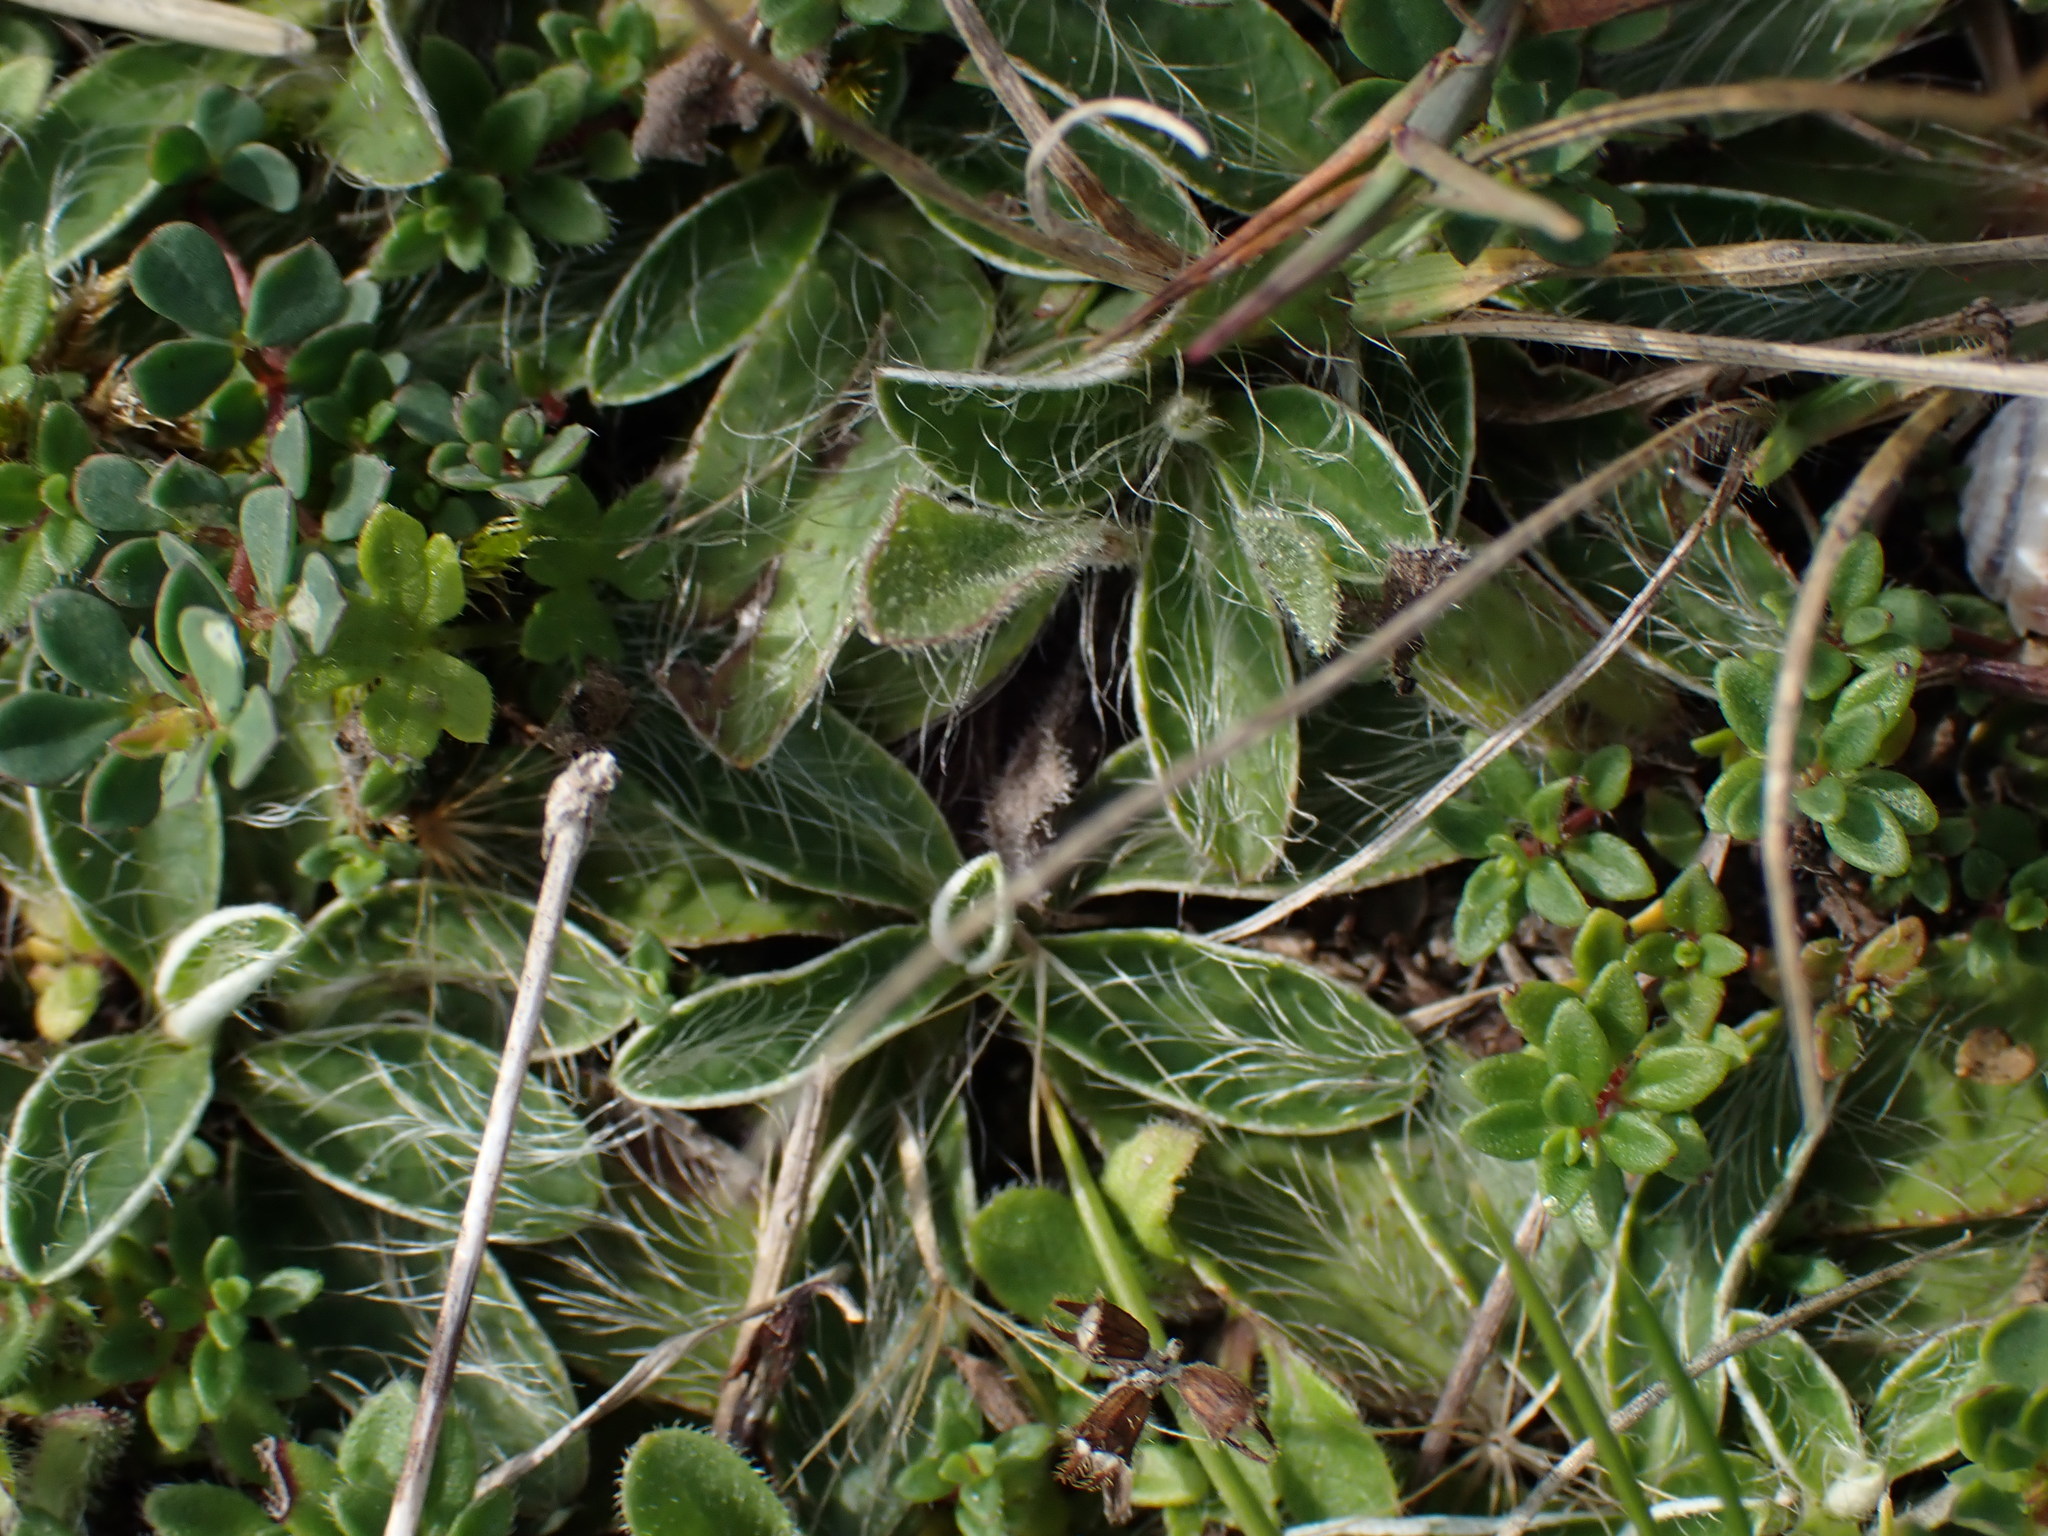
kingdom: Plantae
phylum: Tracheophyta
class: Magnoliopsida
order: Asterales
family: Asteraceae
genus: Pilosella
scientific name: Pilosella officinarum
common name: Mouse-ear hawkweed
